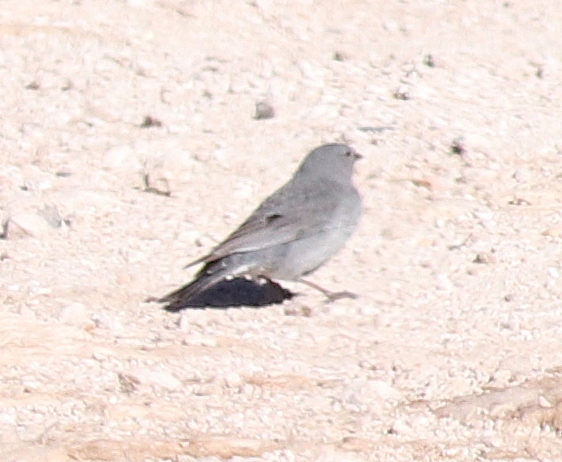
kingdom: Animalia
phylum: Chordata
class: Aves
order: Passeriformes
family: Thraupidae
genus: Geospizopsis
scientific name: Geospizopsis unicolor
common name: Plumbeous sierra-finch
